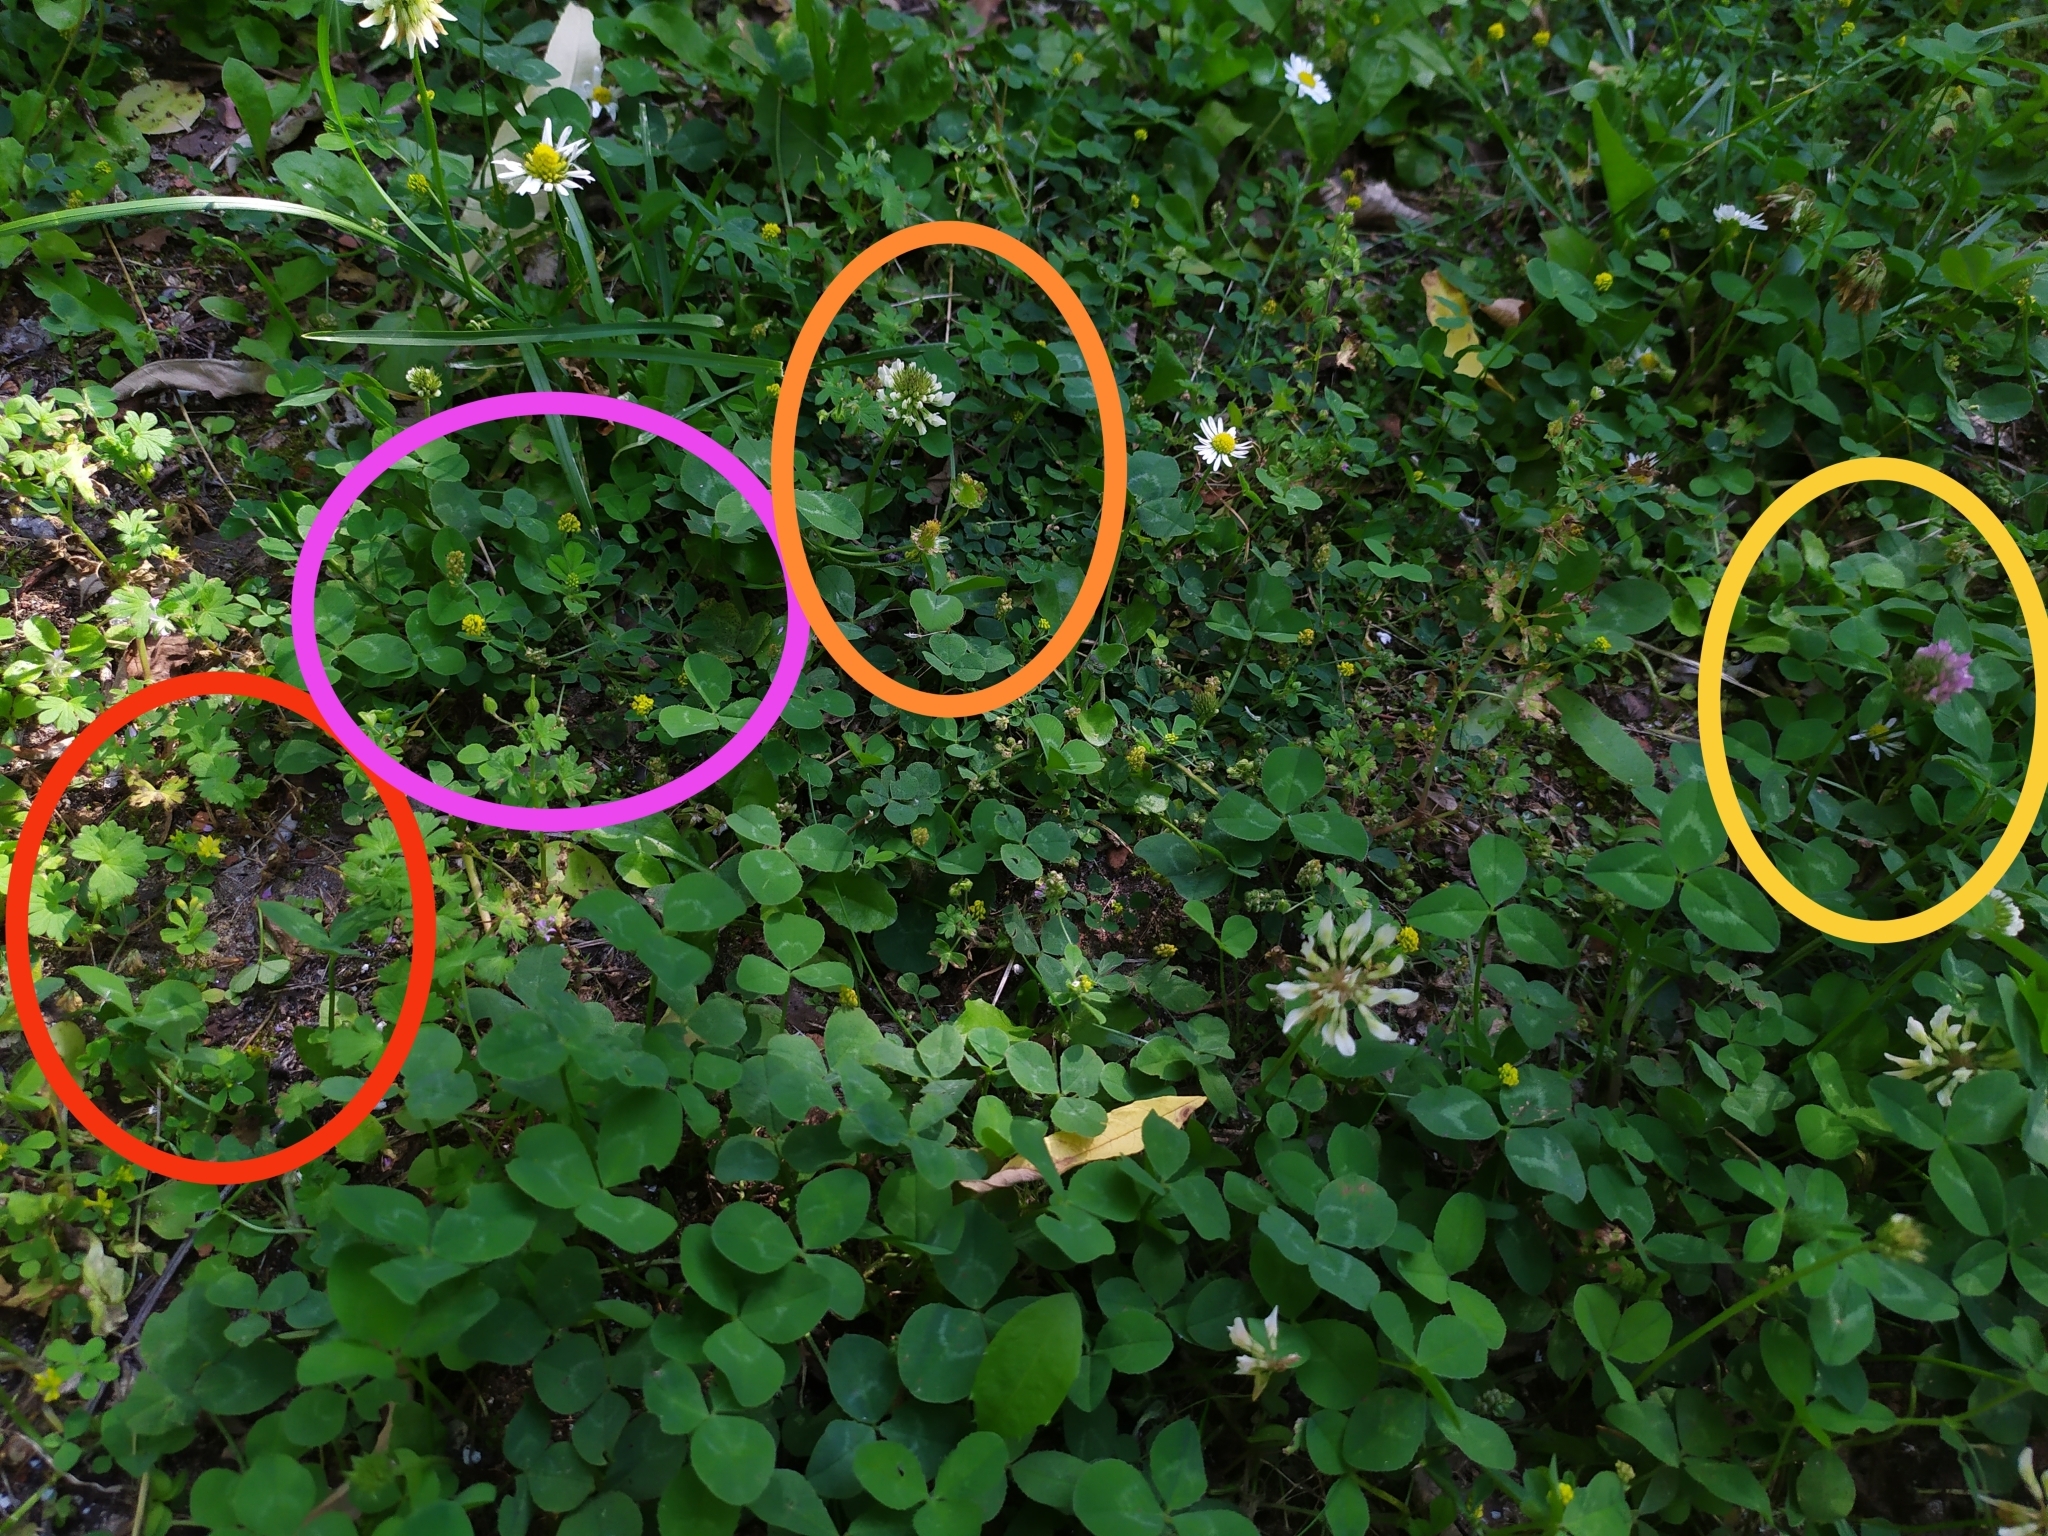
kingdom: Plantae
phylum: Tracheophyta
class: Magnoliopsida
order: Fabales
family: Fabaceae
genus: Trifolium
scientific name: Trifolium dubium
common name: Suckling clover
